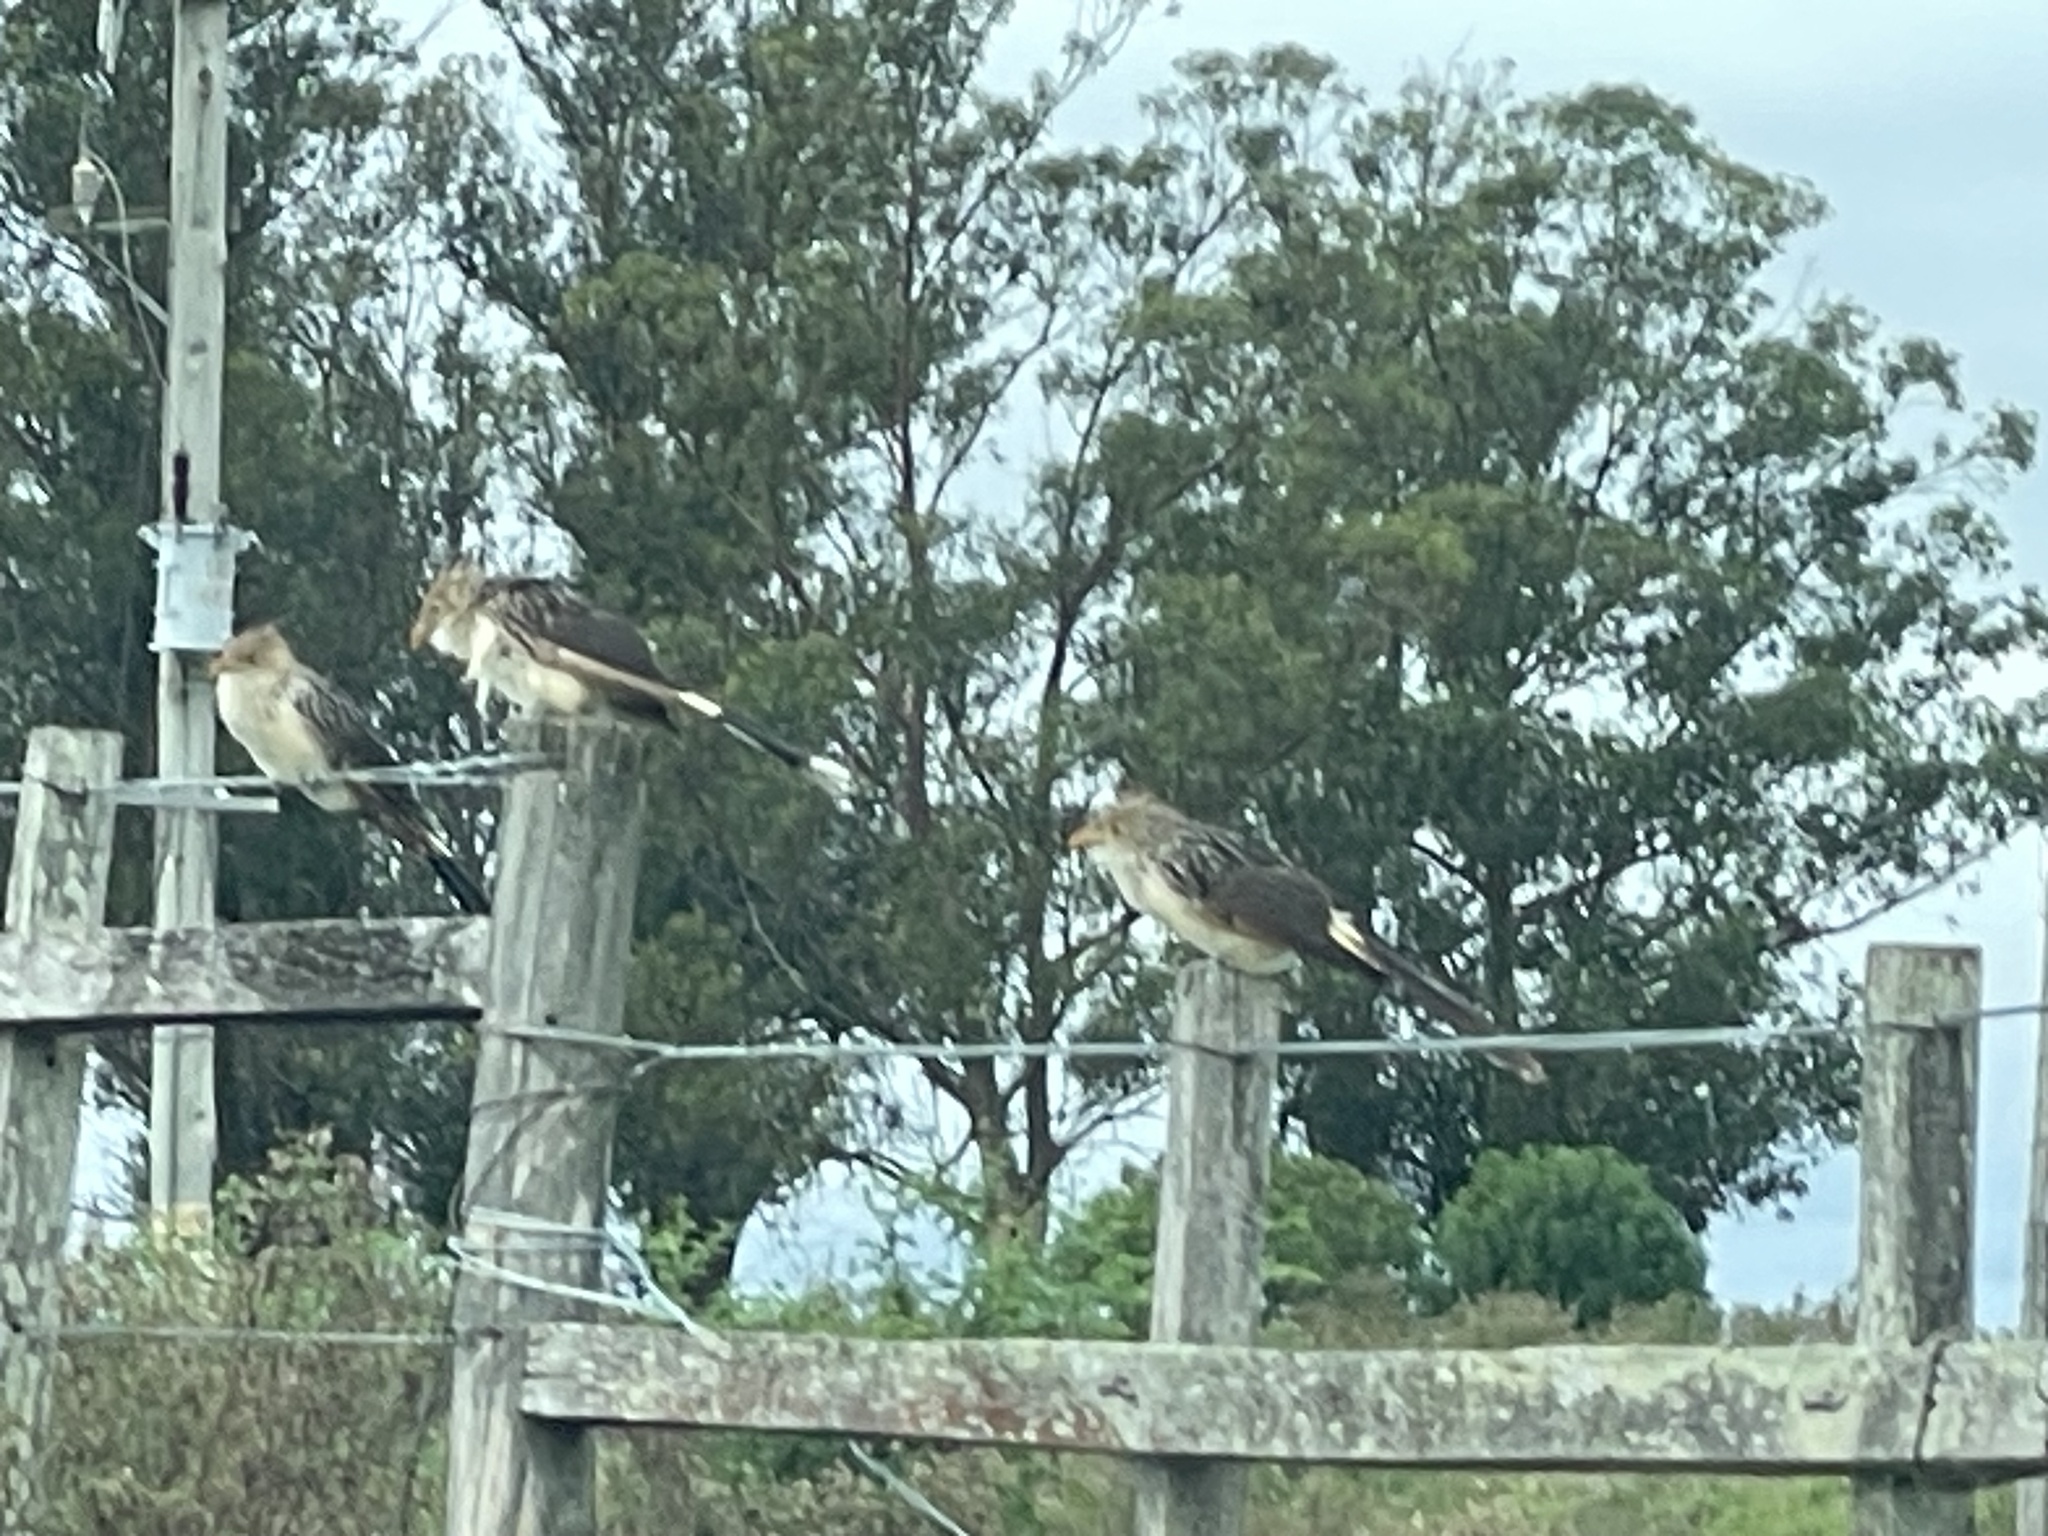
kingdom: Animalia
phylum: Chordata
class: Aves
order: Cuculiformes
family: Cuculidae
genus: Guira
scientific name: Guira guira
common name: Guira cuckoo
